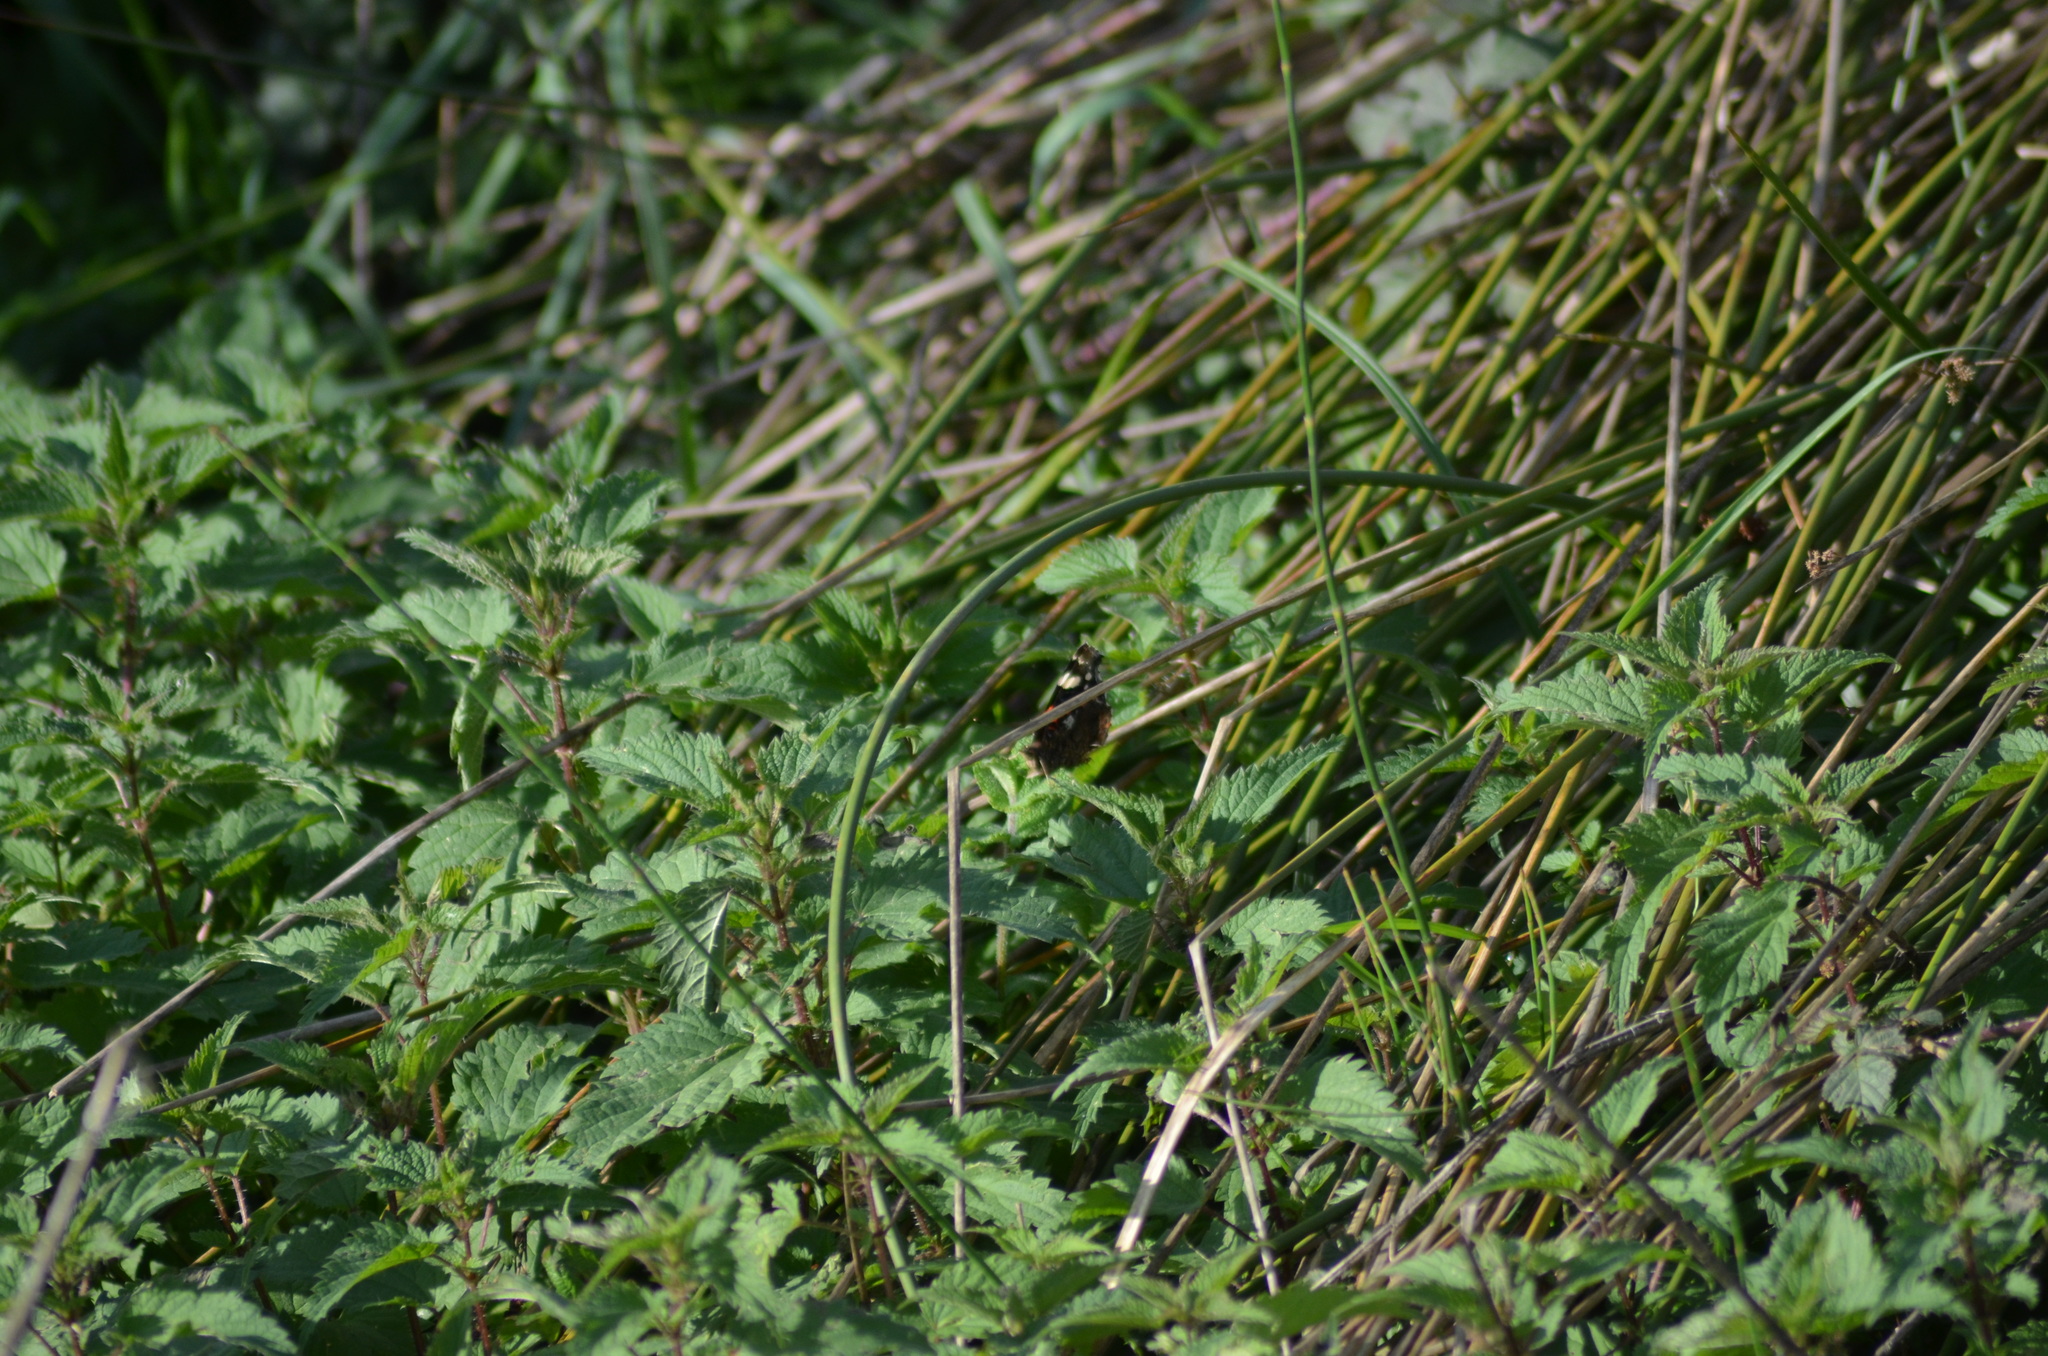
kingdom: Animalia
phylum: Arthropoda
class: Insecta
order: Lepidoptera
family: Nymphalidae
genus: Vanessa
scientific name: Vanessa atalanta
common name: Red admiral
